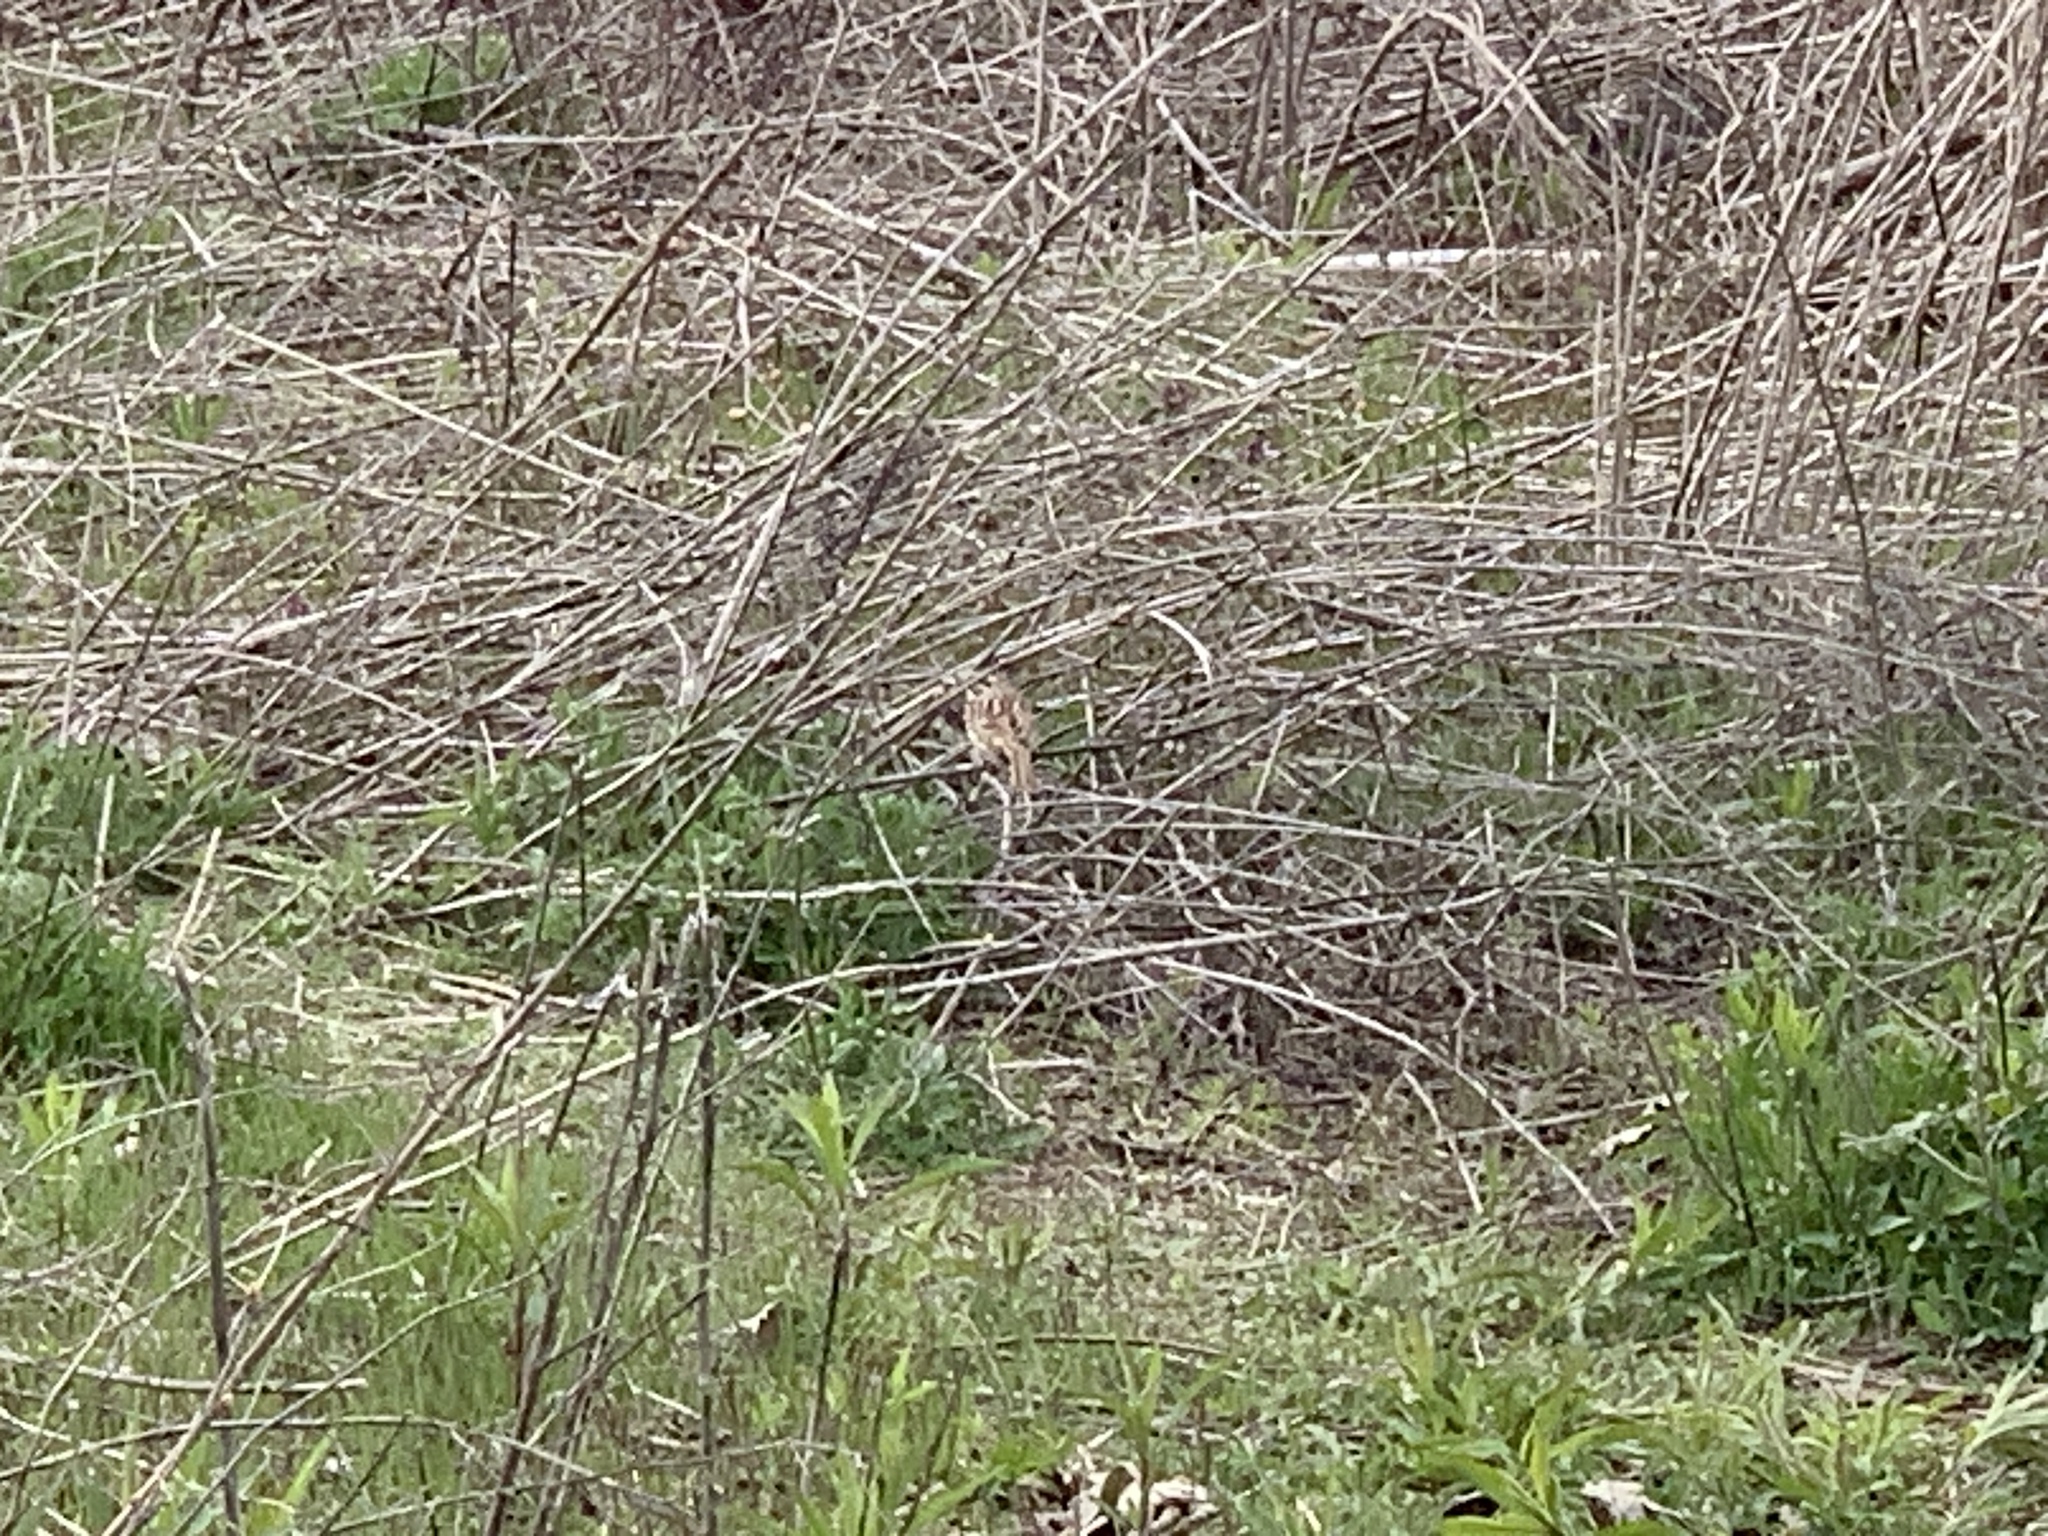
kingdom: Animalia
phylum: Chordata
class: Aves
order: Passeriformes
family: Passerellidae
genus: Passerculus
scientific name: Passerculus sandwichensis
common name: Savannah sparrow
